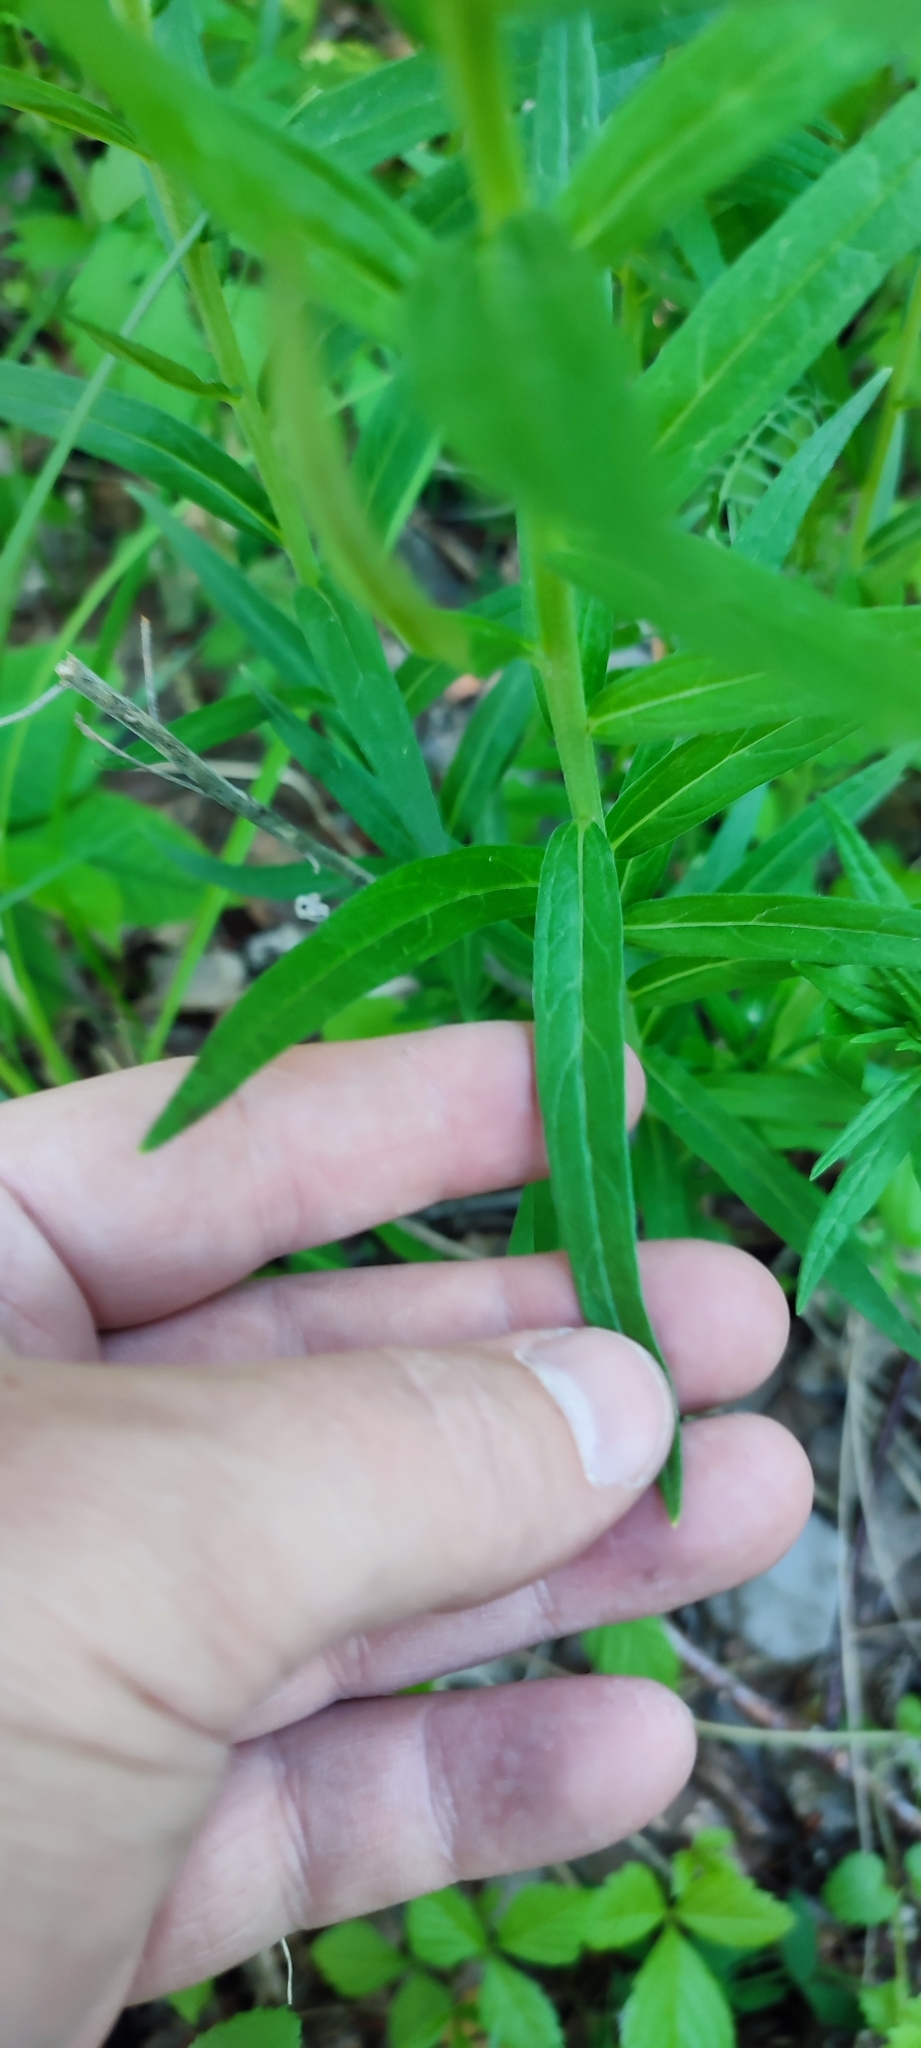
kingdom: Plantae
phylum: Tracheophyta
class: Magnoliopsida
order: Boraginales
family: Boraginaceae
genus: Lithospermum
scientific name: Lithospermum officinale
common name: Common gromwell
